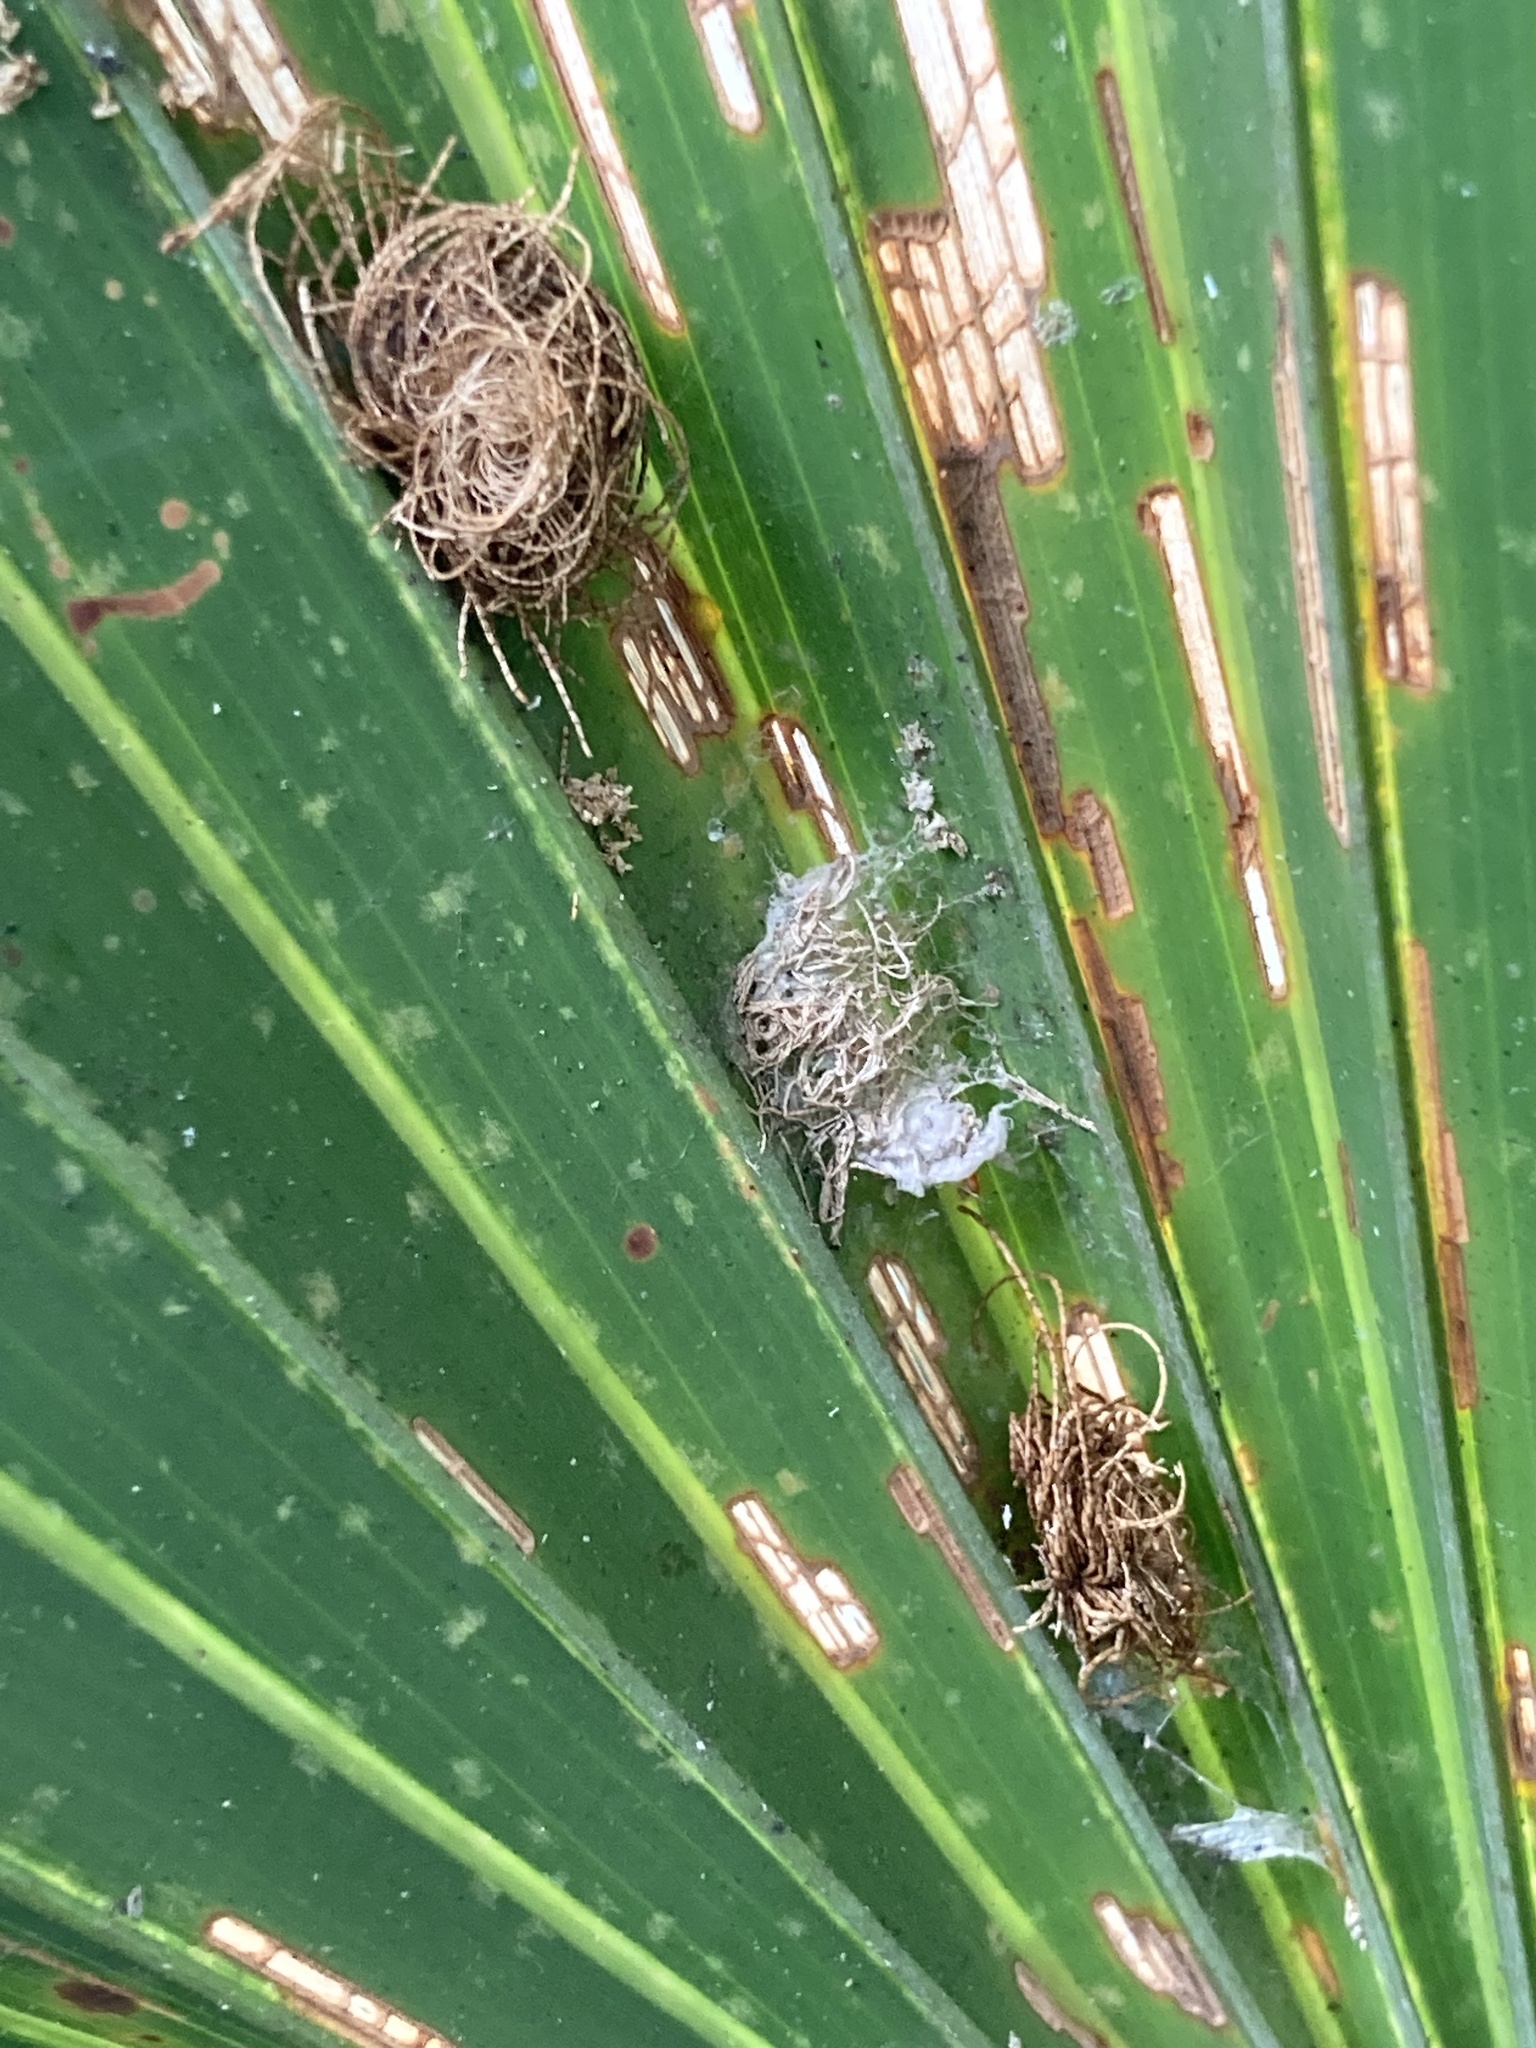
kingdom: Animalia
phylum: Arthropoda
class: Insecta
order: Coleoptera
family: Chrysomelidae
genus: Hemisphaerota
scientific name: Hemisphaerota cyanea
